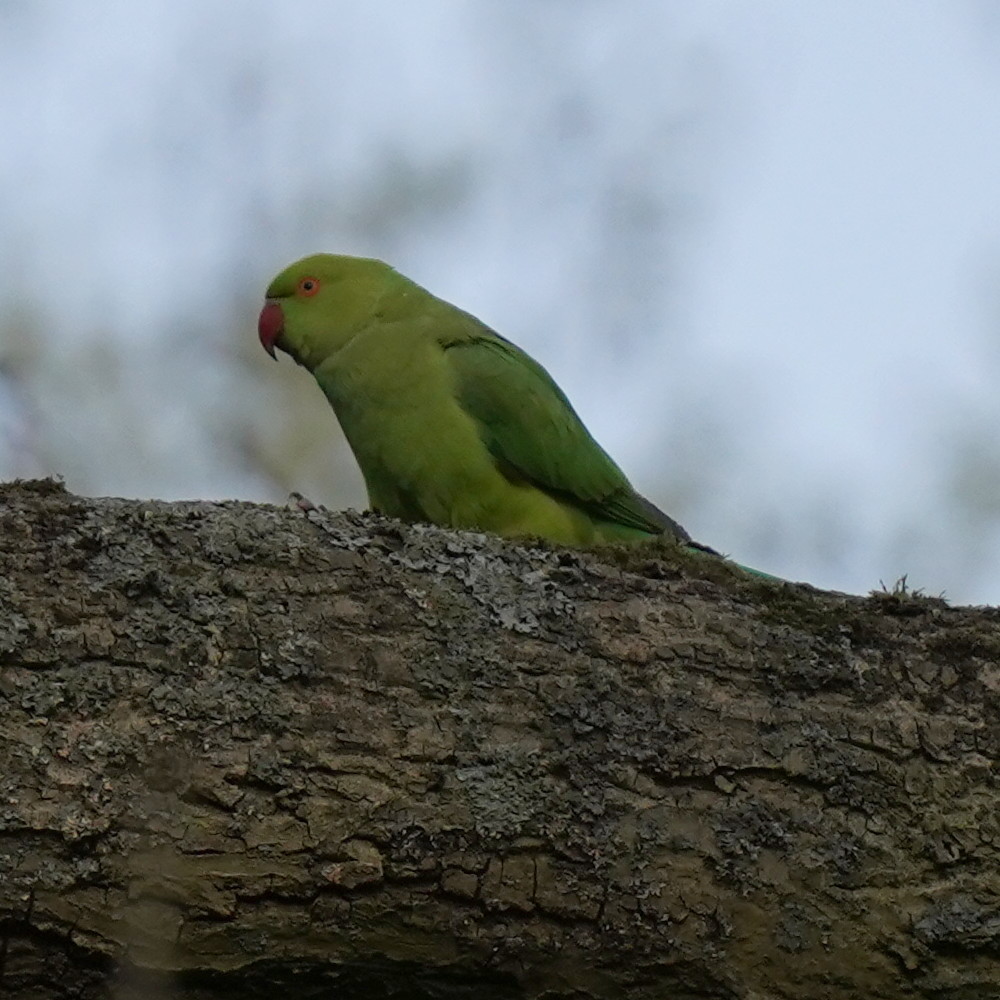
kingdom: Animalia
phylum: Chordata
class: Aves
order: Psittaciformes
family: Psittacidae
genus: Psittacula
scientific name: Psittacula krameri
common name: Rose-ringed parakeet
